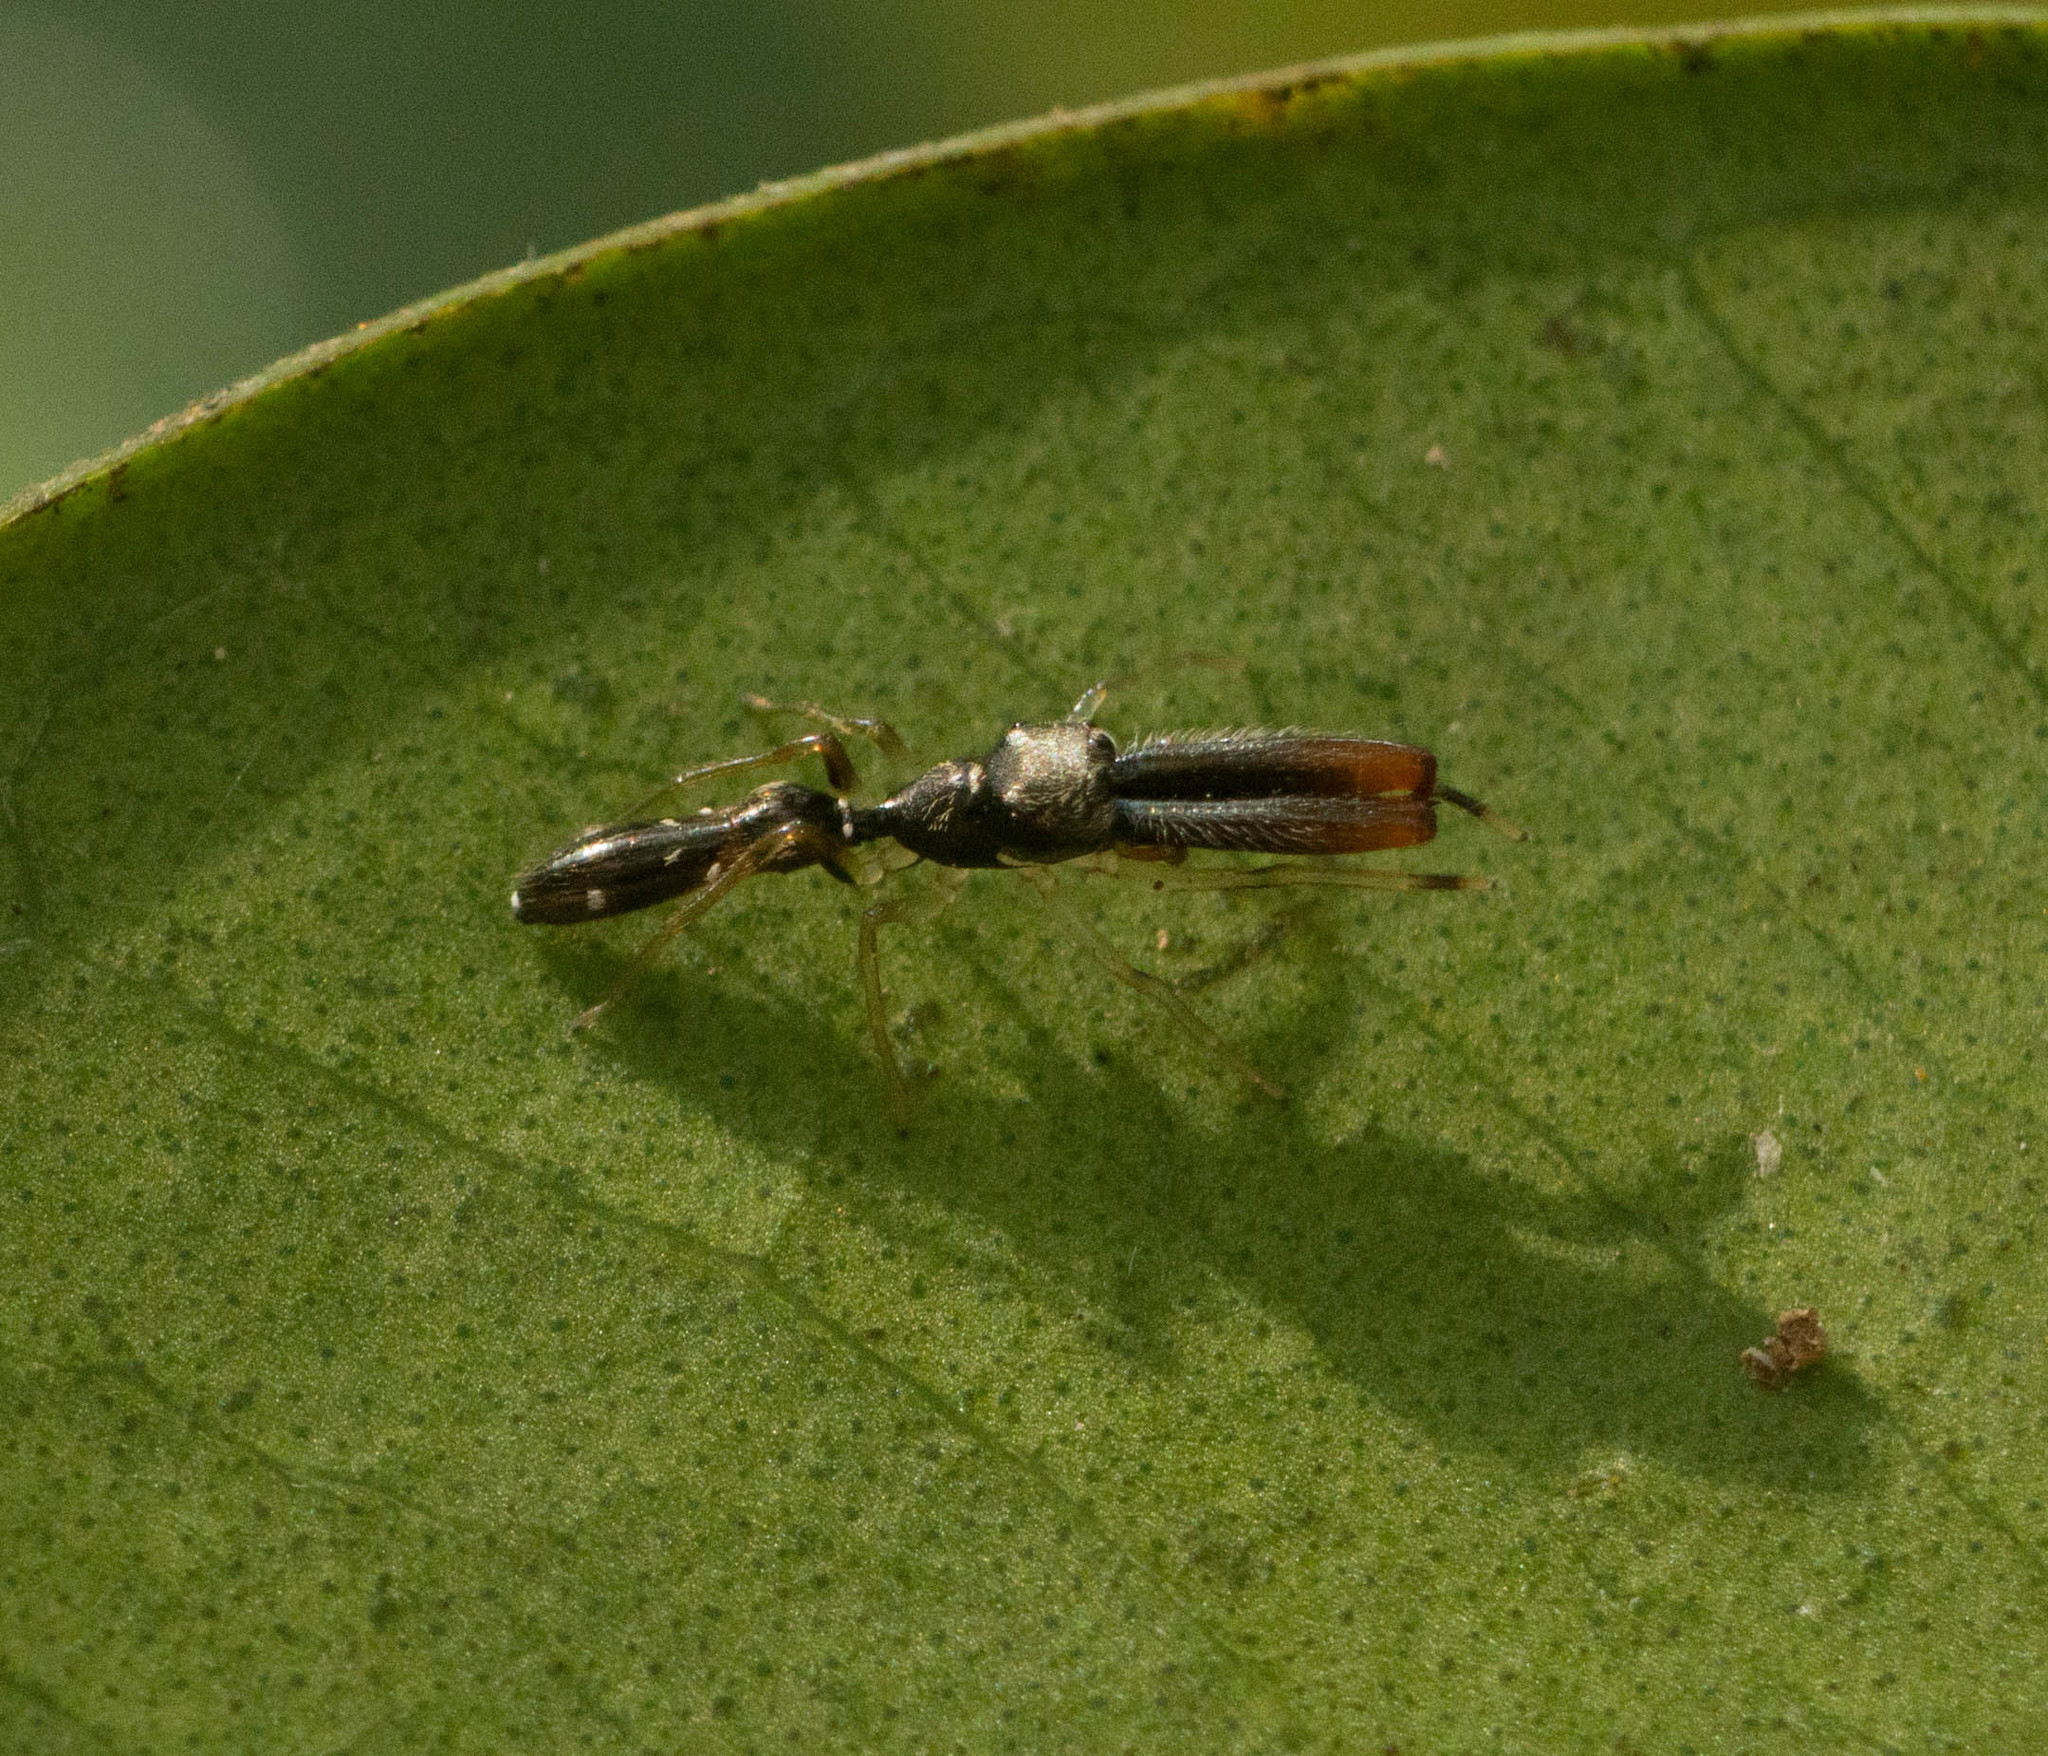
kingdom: Animalia
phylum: Arthropoda
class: Arachnida
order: Araneae
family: Salticidae
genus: Myrmarachne
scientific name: Myrmarachne nigella
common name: Jumping spider
